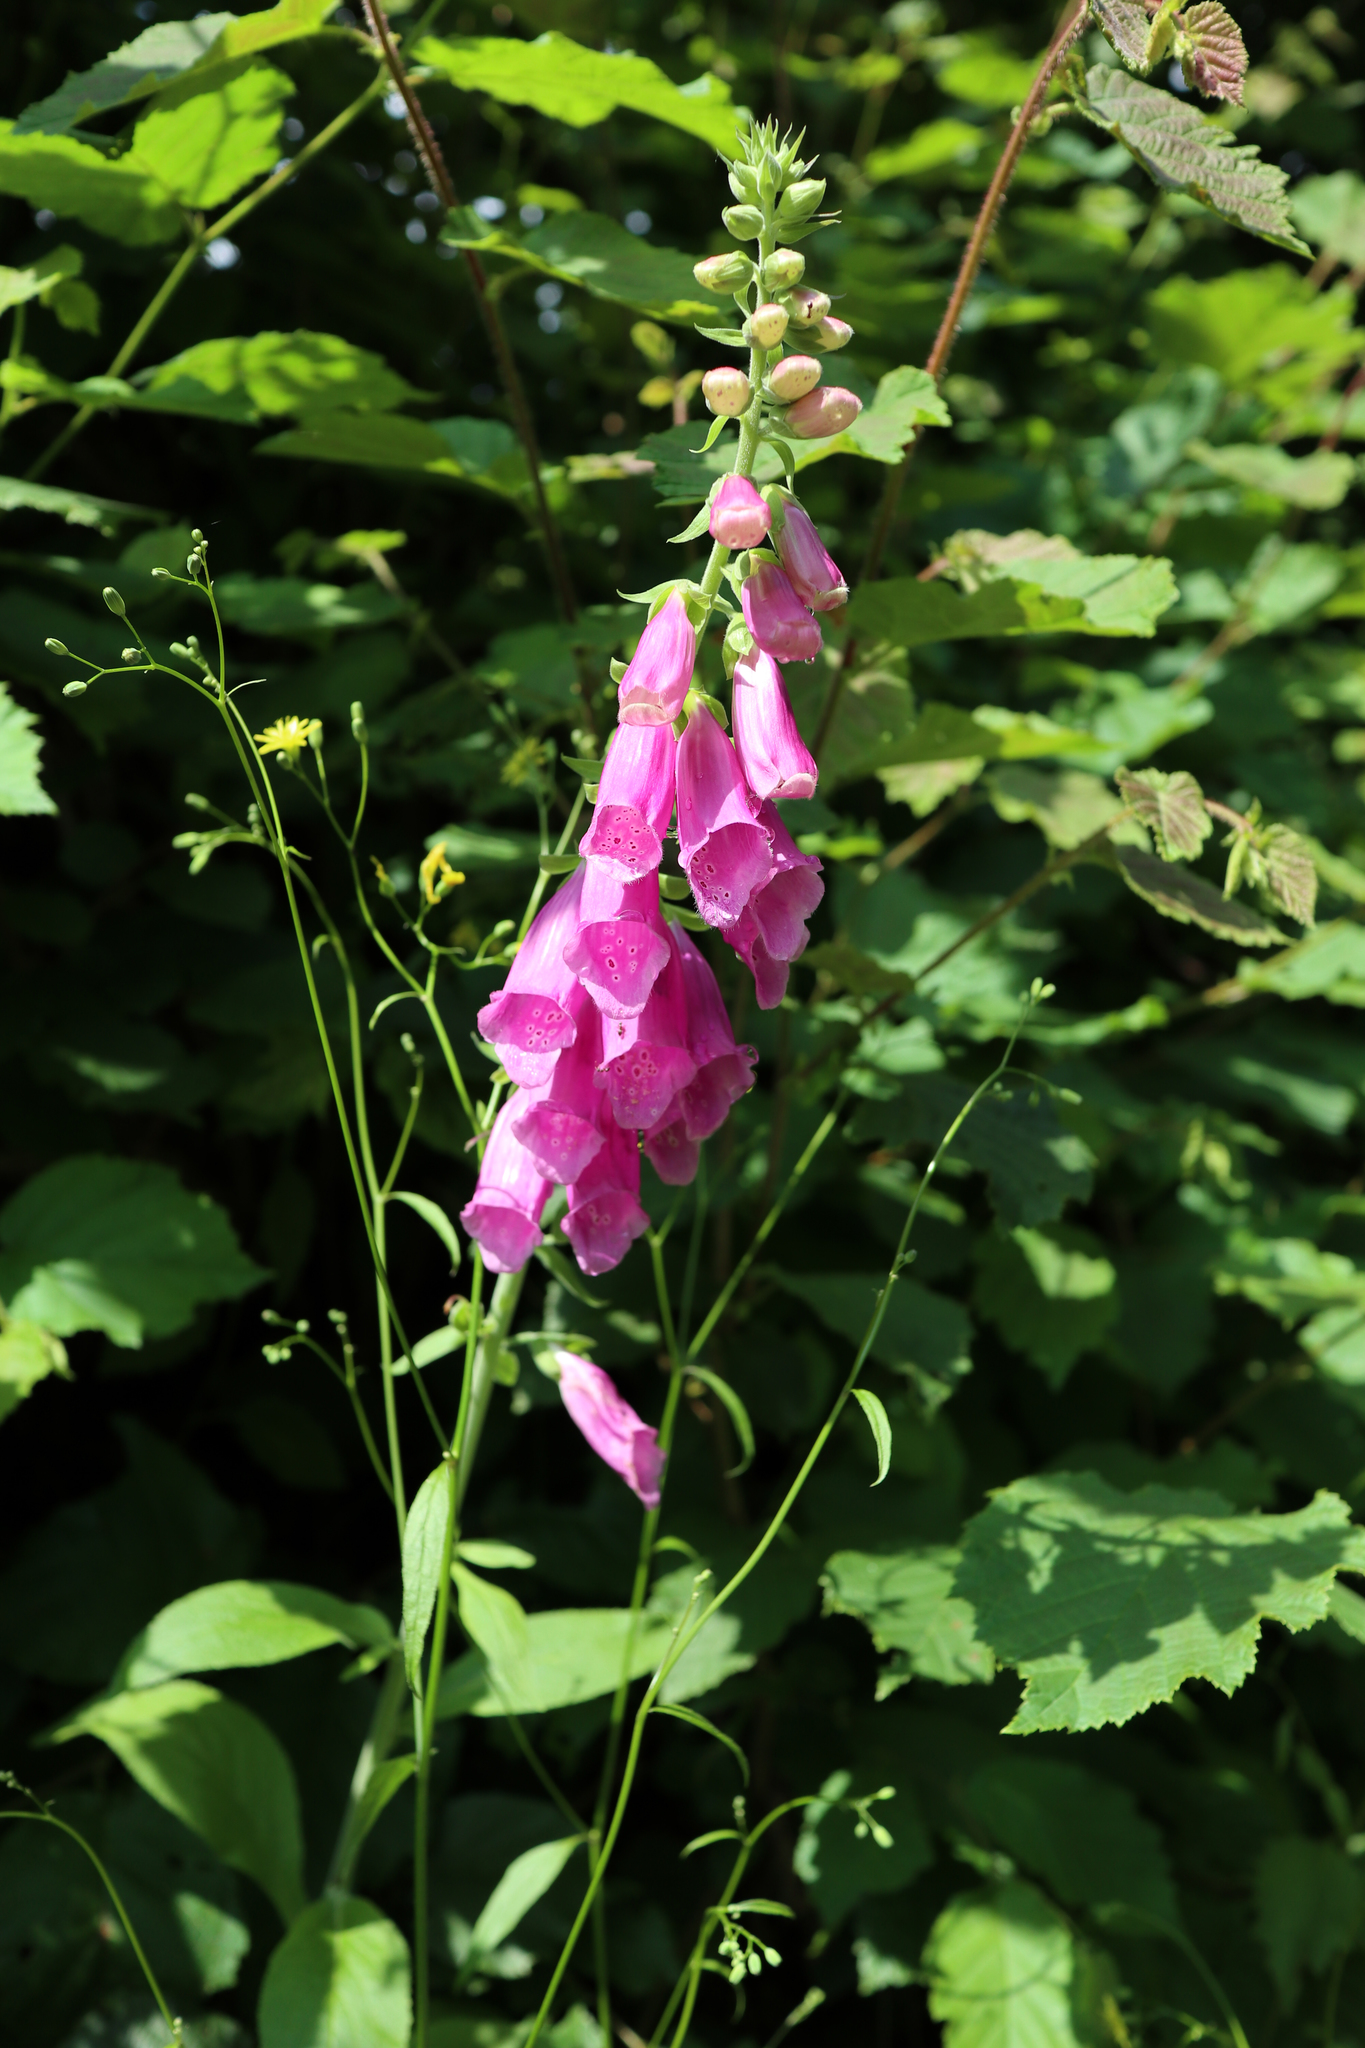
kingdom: Plantae
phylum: Tracheophyta
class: Magnoliopsida
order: Lamiales
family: Plantaginaceae
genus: Digitalis
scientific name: Digitalis purpurea
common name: Foxglove
